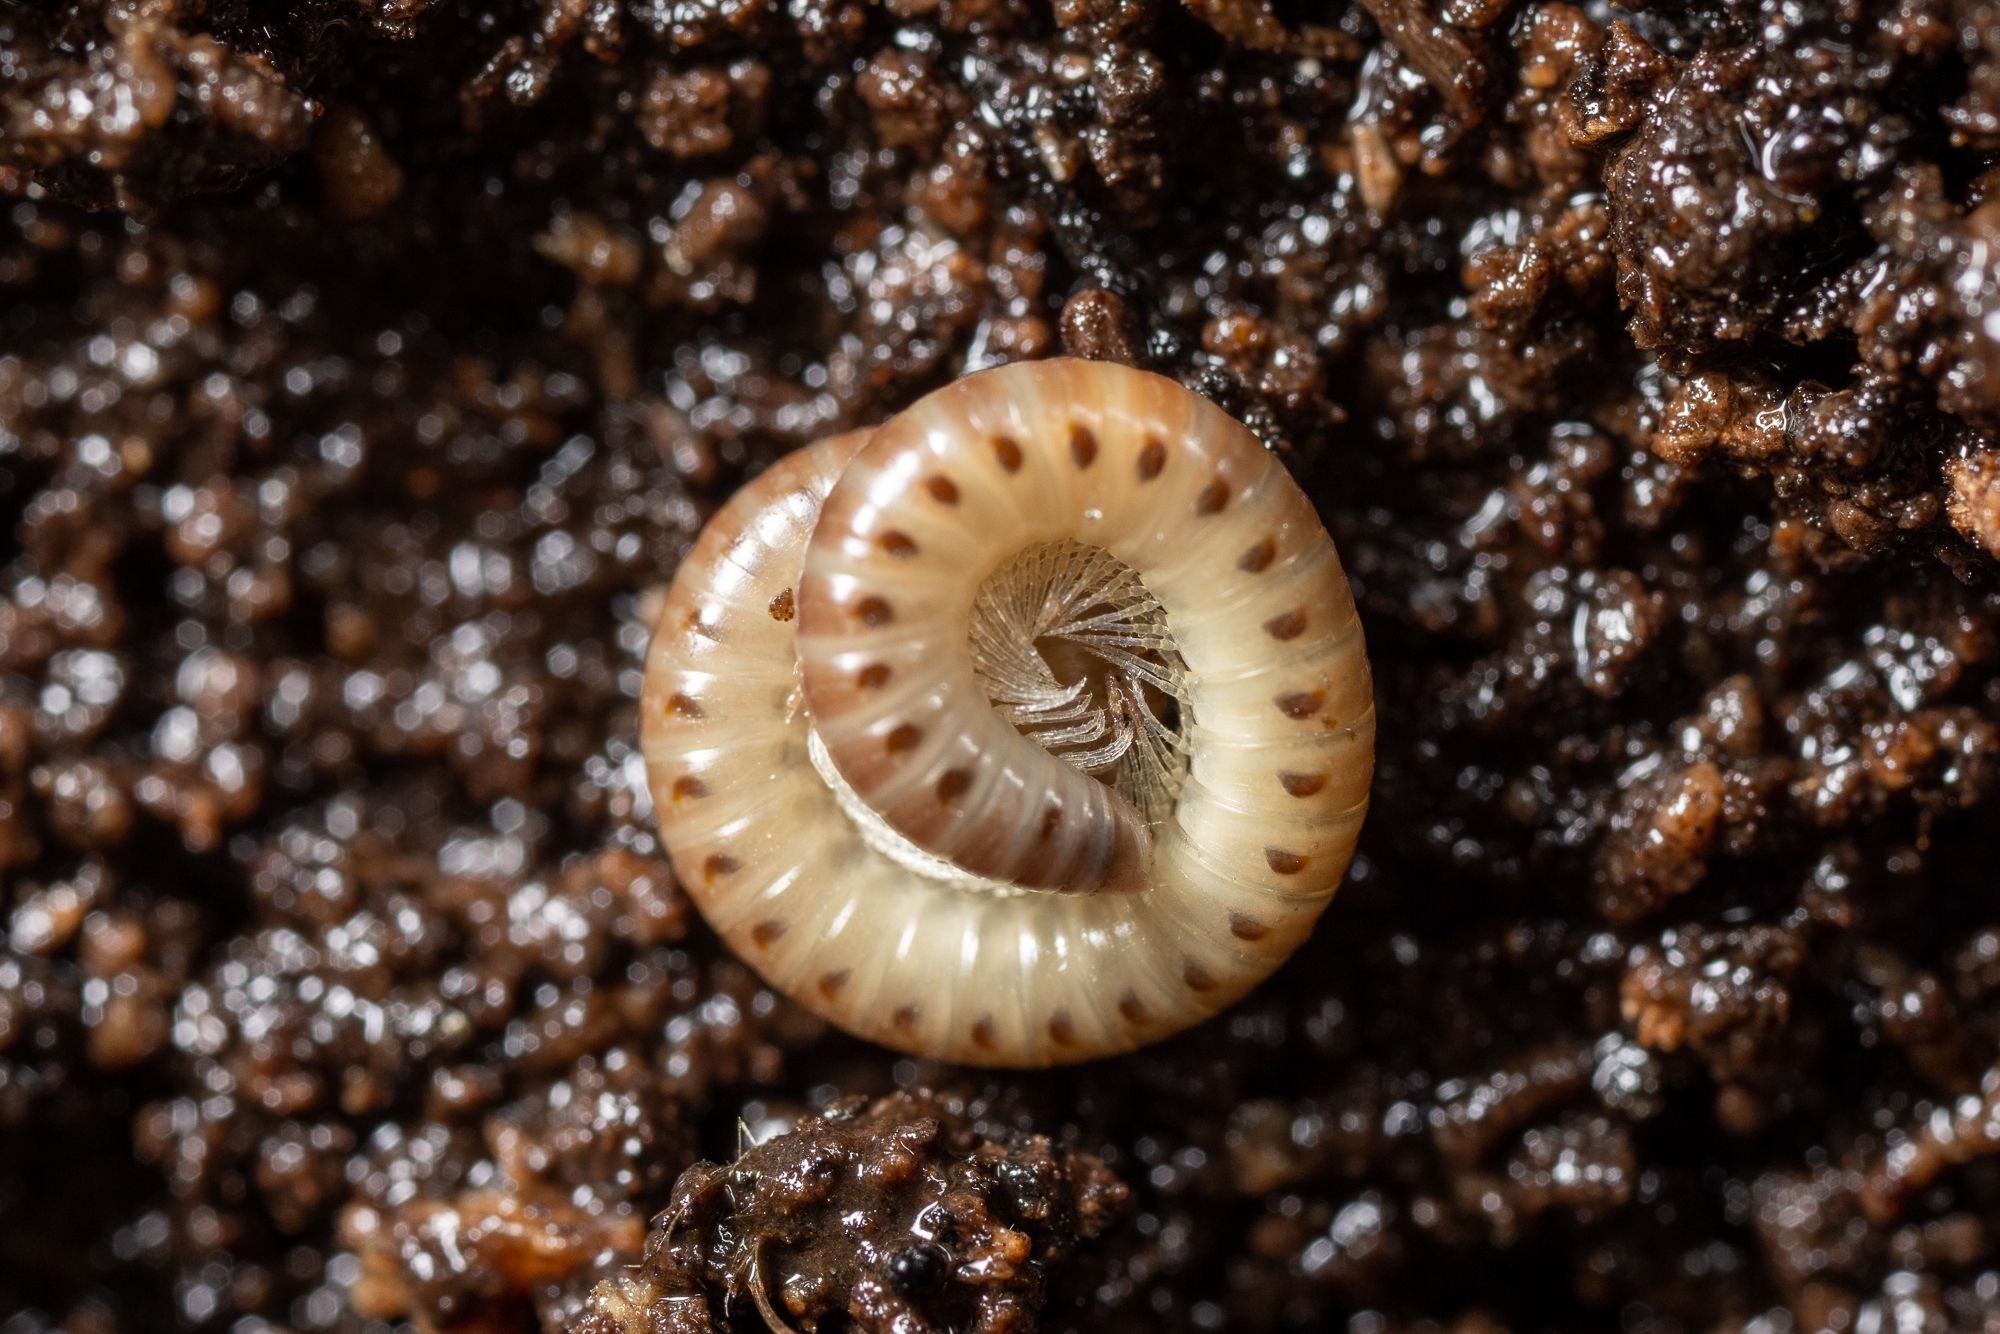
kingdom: Animalia
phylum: Arthropoda
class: Diplopoda
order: Julida
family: Blaniulidae
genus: Blaniulus
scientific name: Blaniulus guttulatus
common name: Spotted snake millipede
